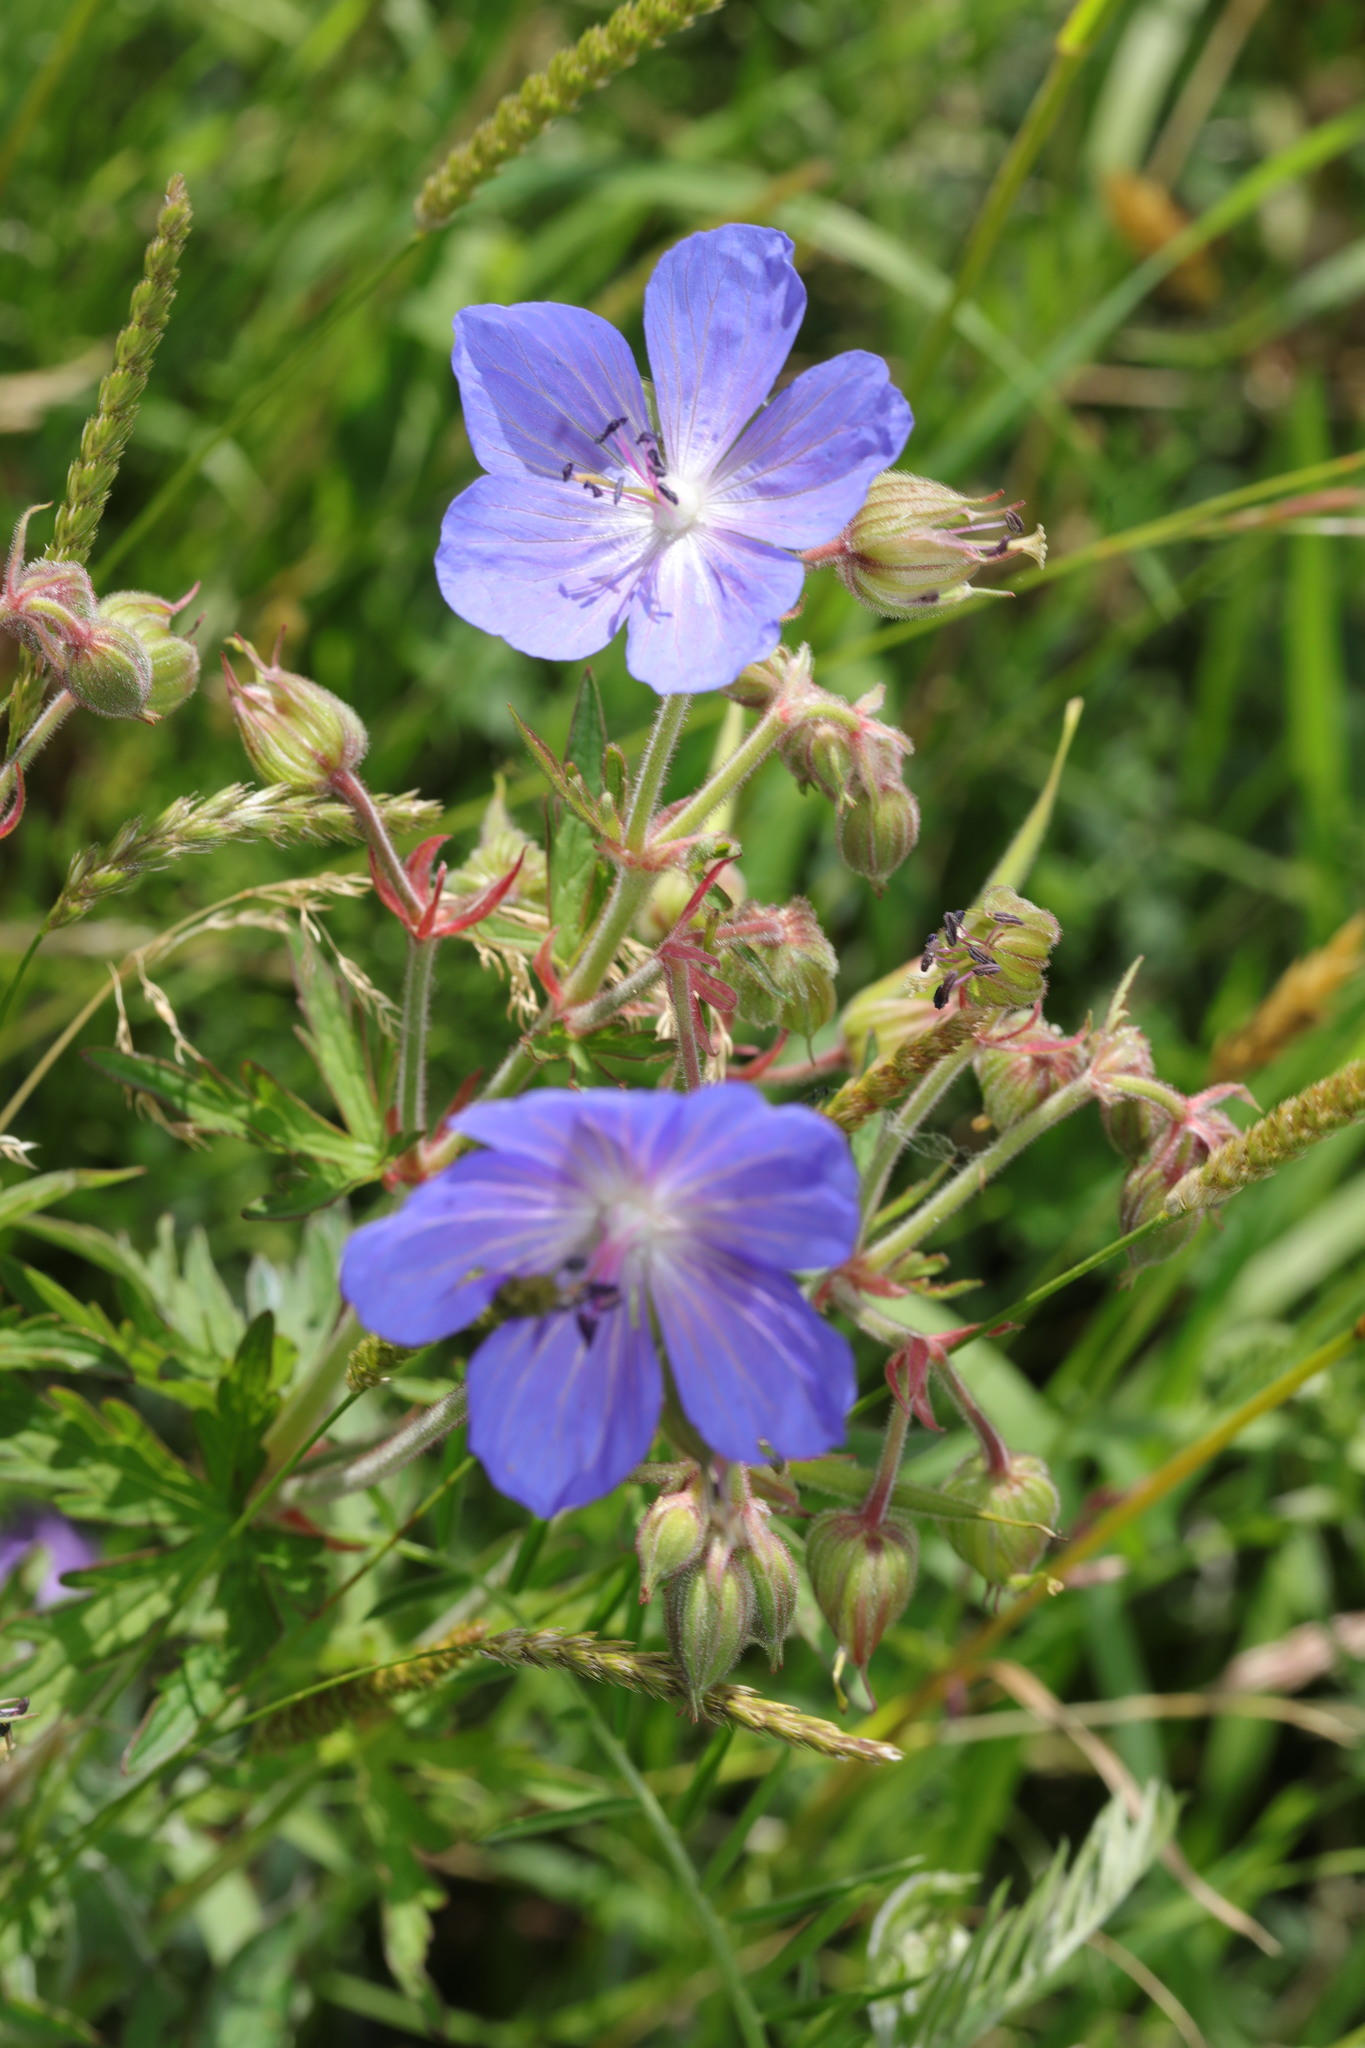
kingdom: Plantae
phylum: Tracheophyta
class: Magnoliopsida
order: Geraniales
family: Geraniaceae
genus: Geranium
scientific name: Geranium pratense
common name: Meadow crane's-bill
